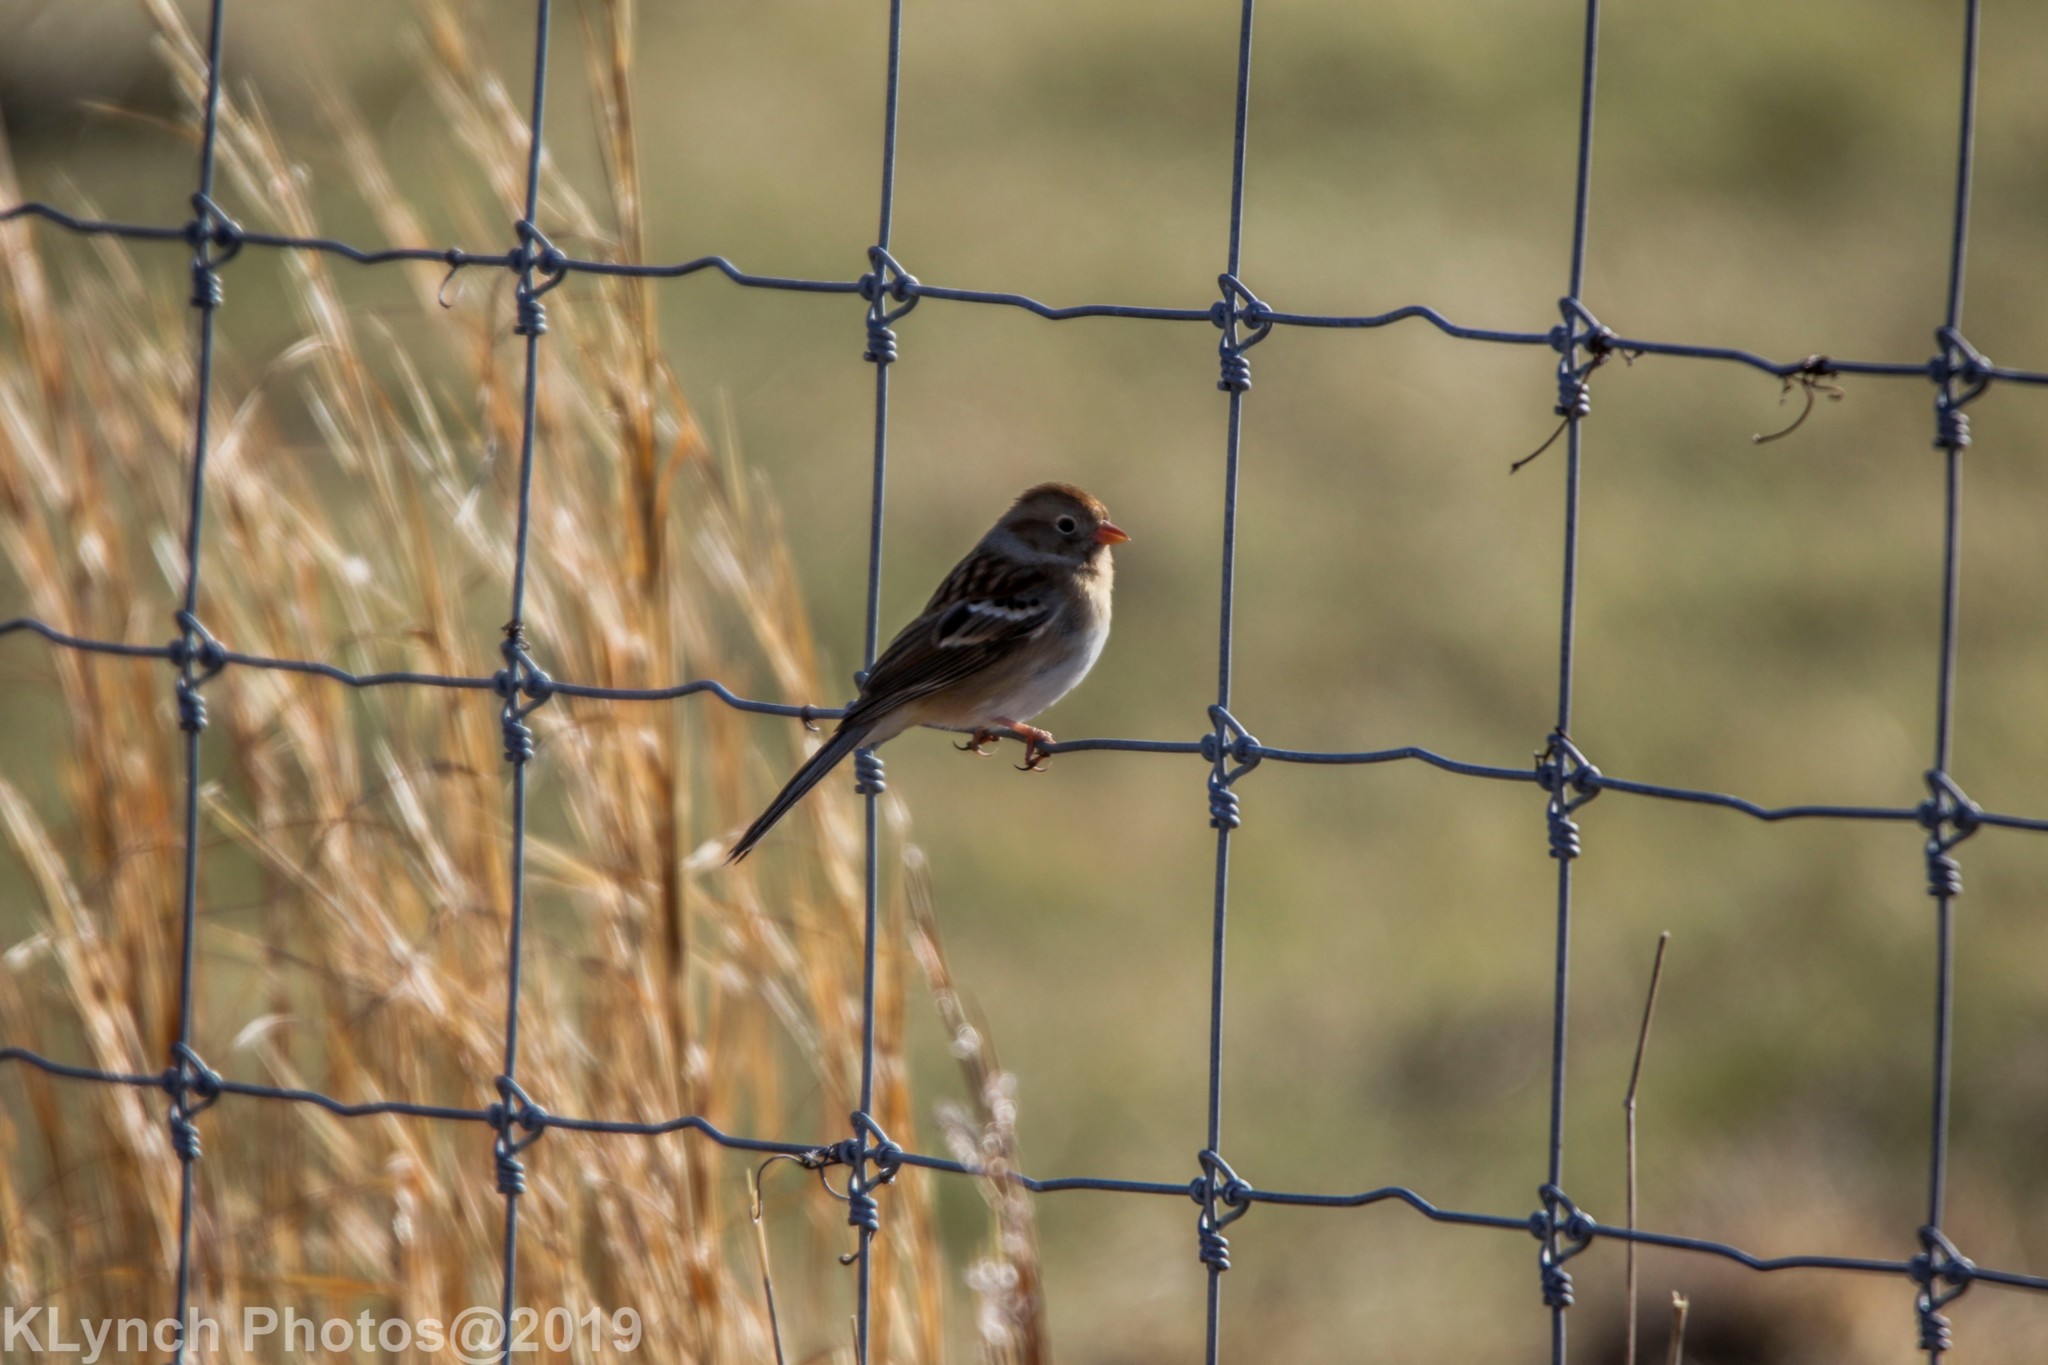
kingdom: Animalia
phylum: Chordata
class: Aves
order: Passeriformes
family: Passerellidae
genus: Spizella
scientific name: Spizella pusilla
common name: Field sparrow
